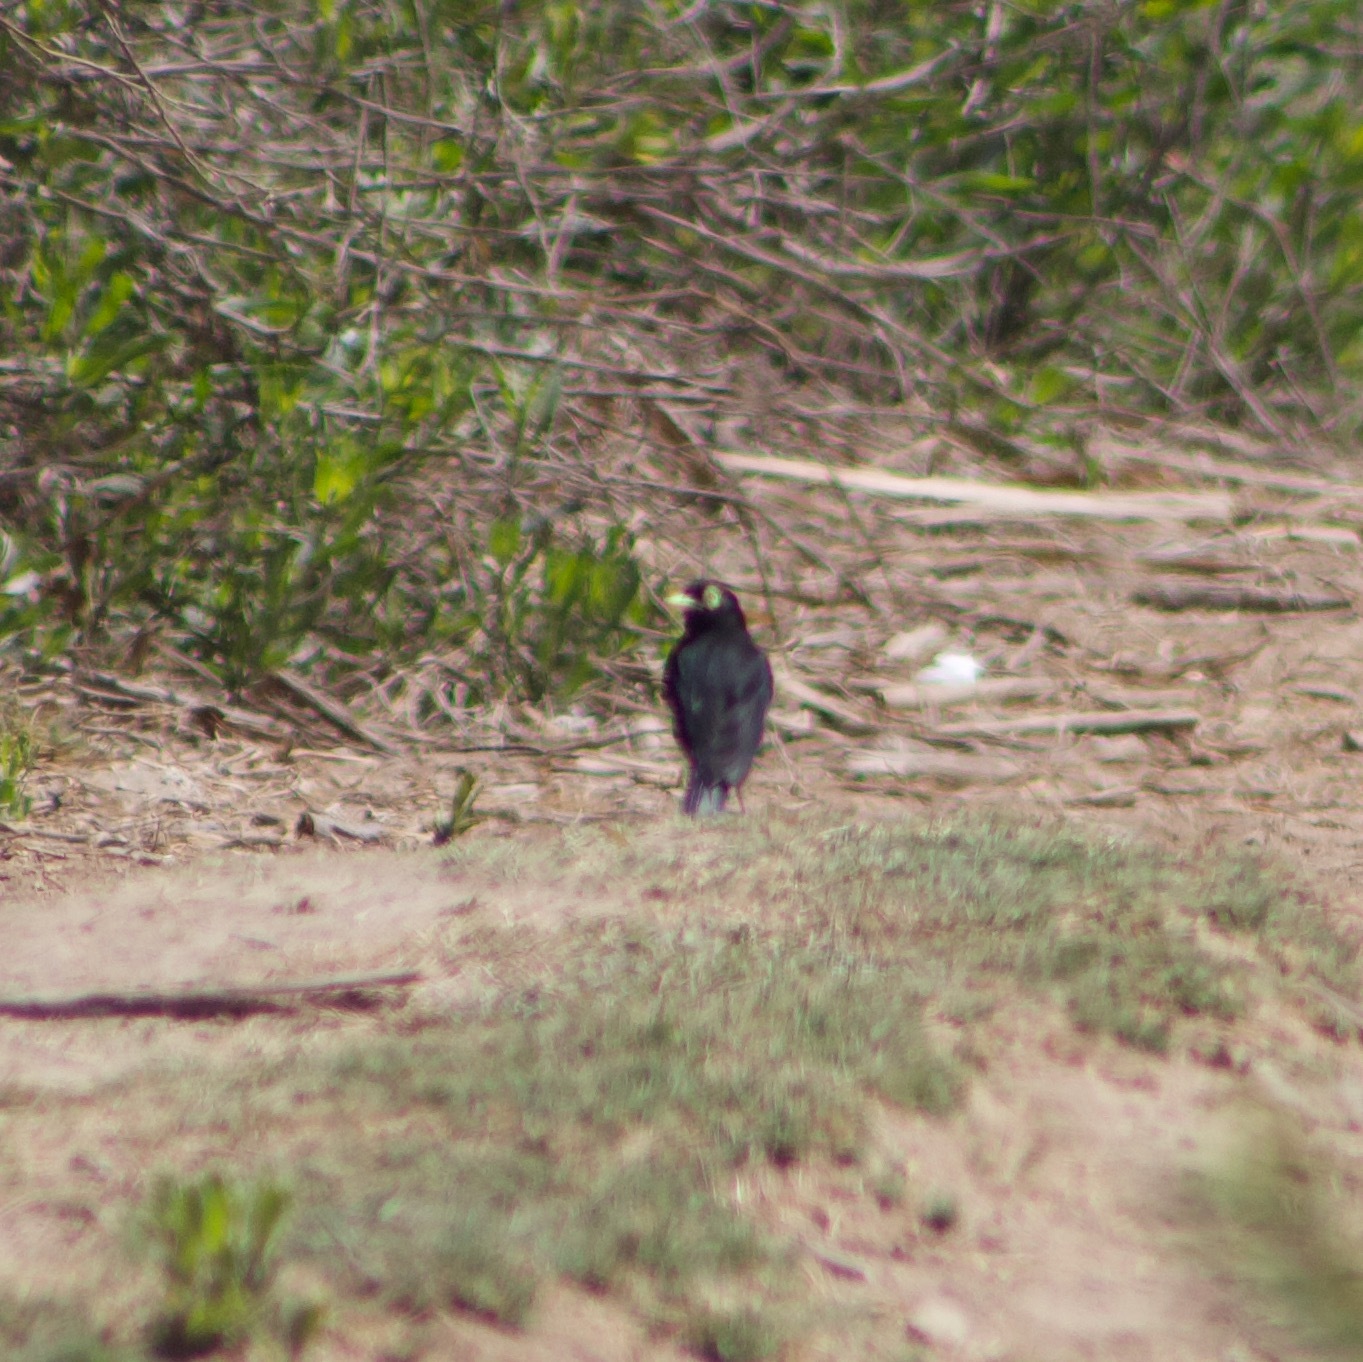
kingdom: Animalia
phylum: Chordata
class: Aves
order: Passeriformes
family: Tyrannidae
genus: Hymenops
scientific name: Hymenops perspicillatus
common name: Spectacled tyrant
